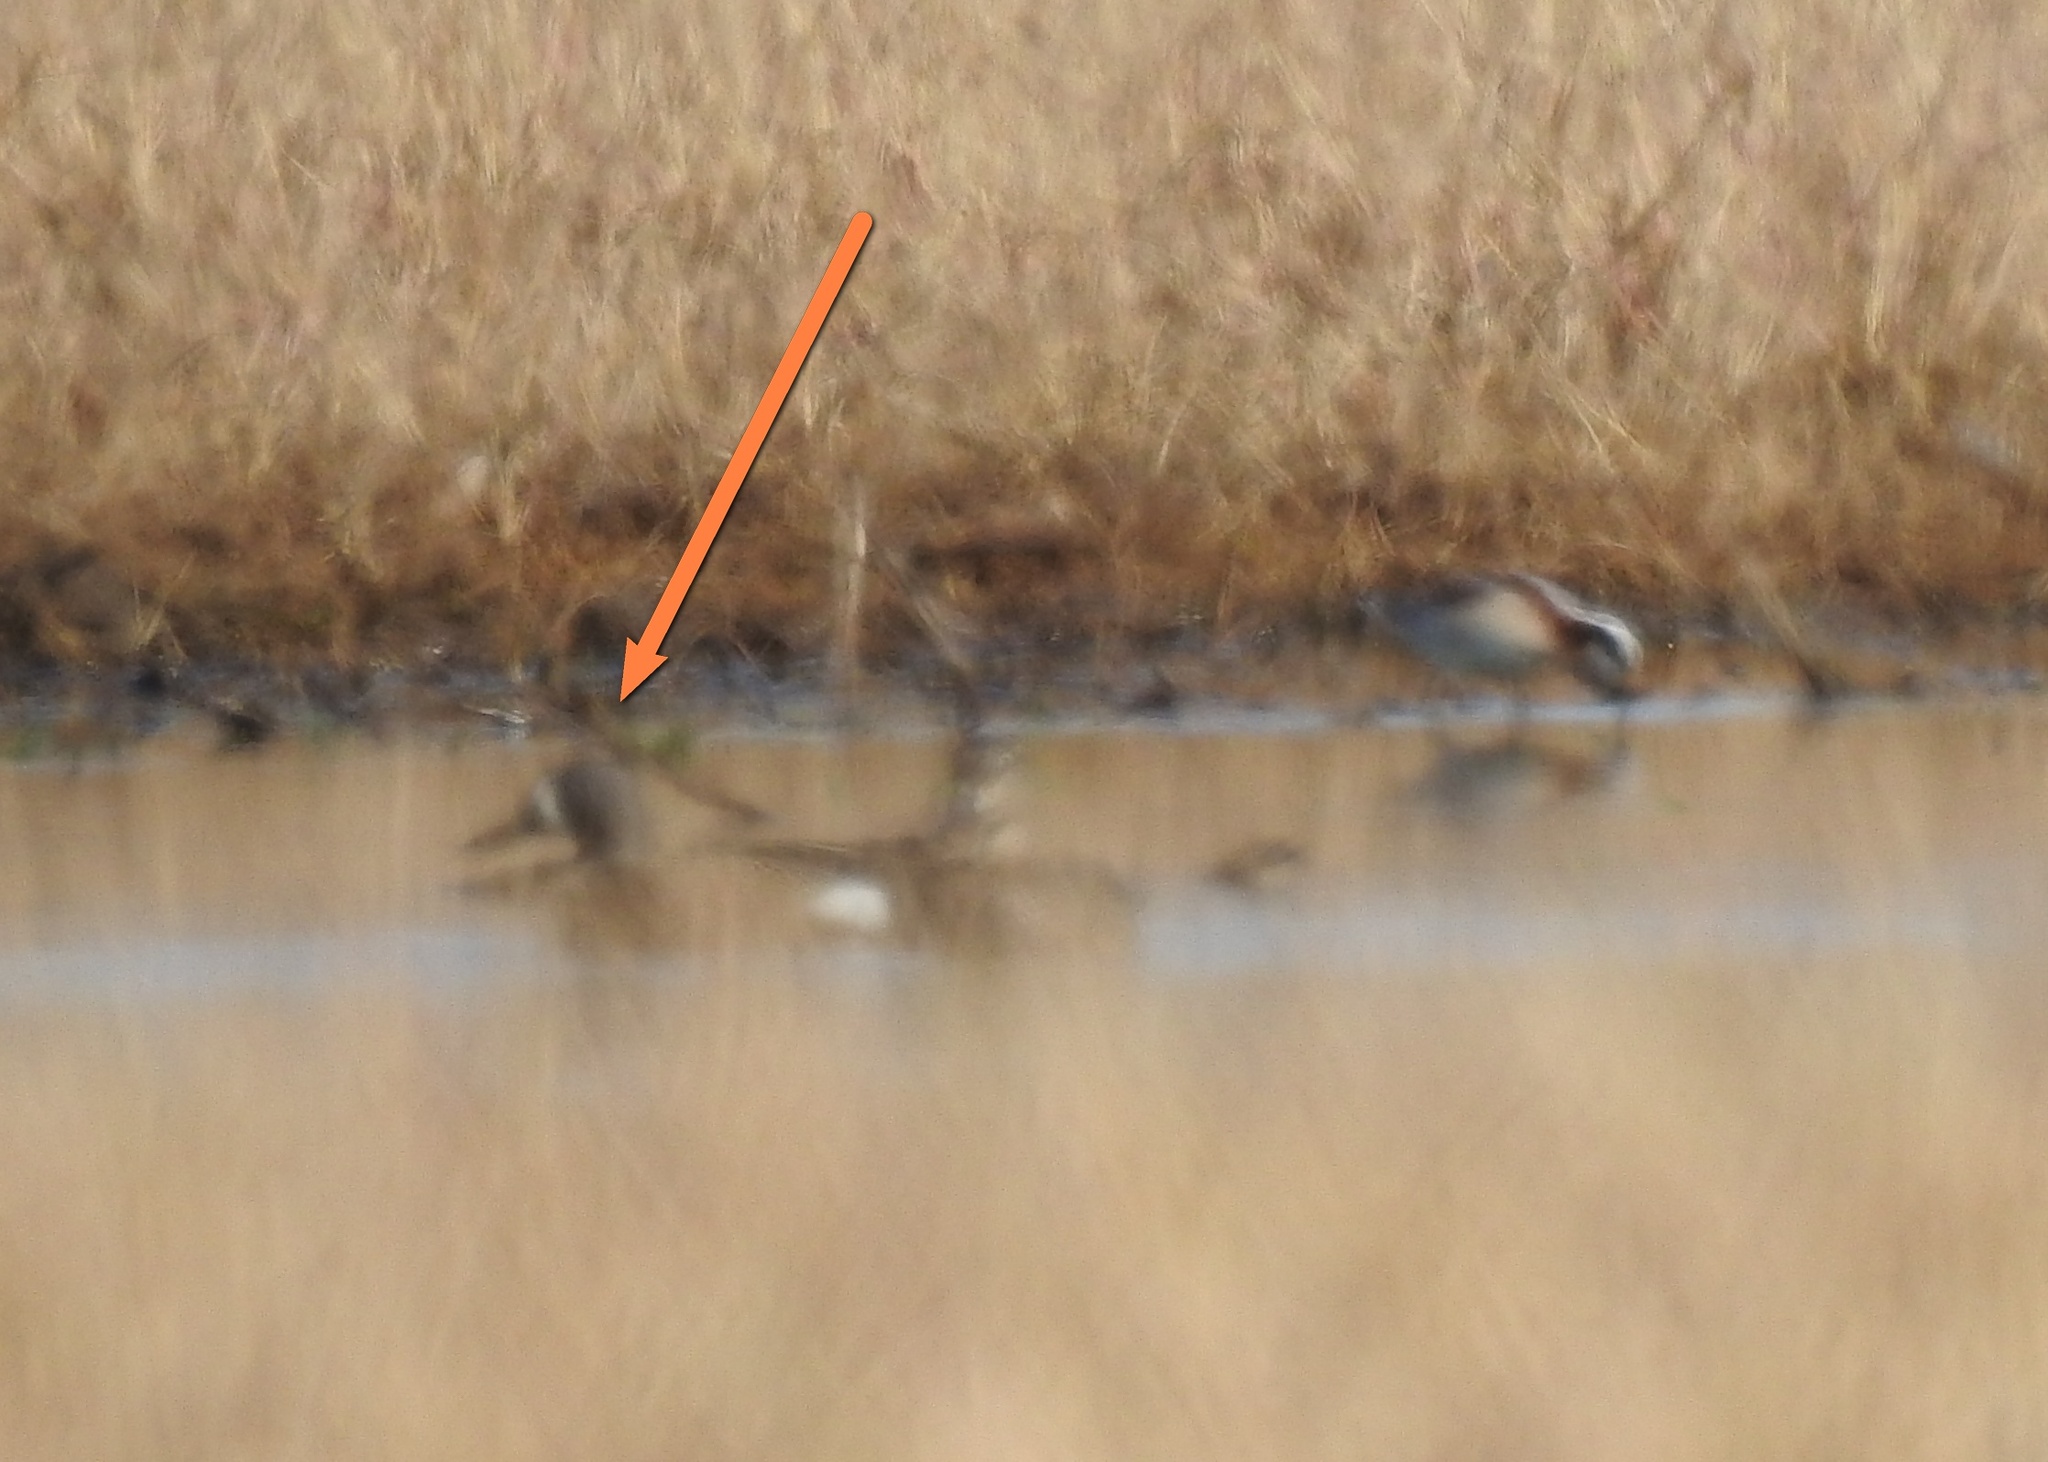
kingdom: Animalia
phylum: Chordata
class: Aves
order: Anseriformes
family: Anatidae
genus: Spatula
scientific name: Spatula discors
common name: Blue-winged teal
